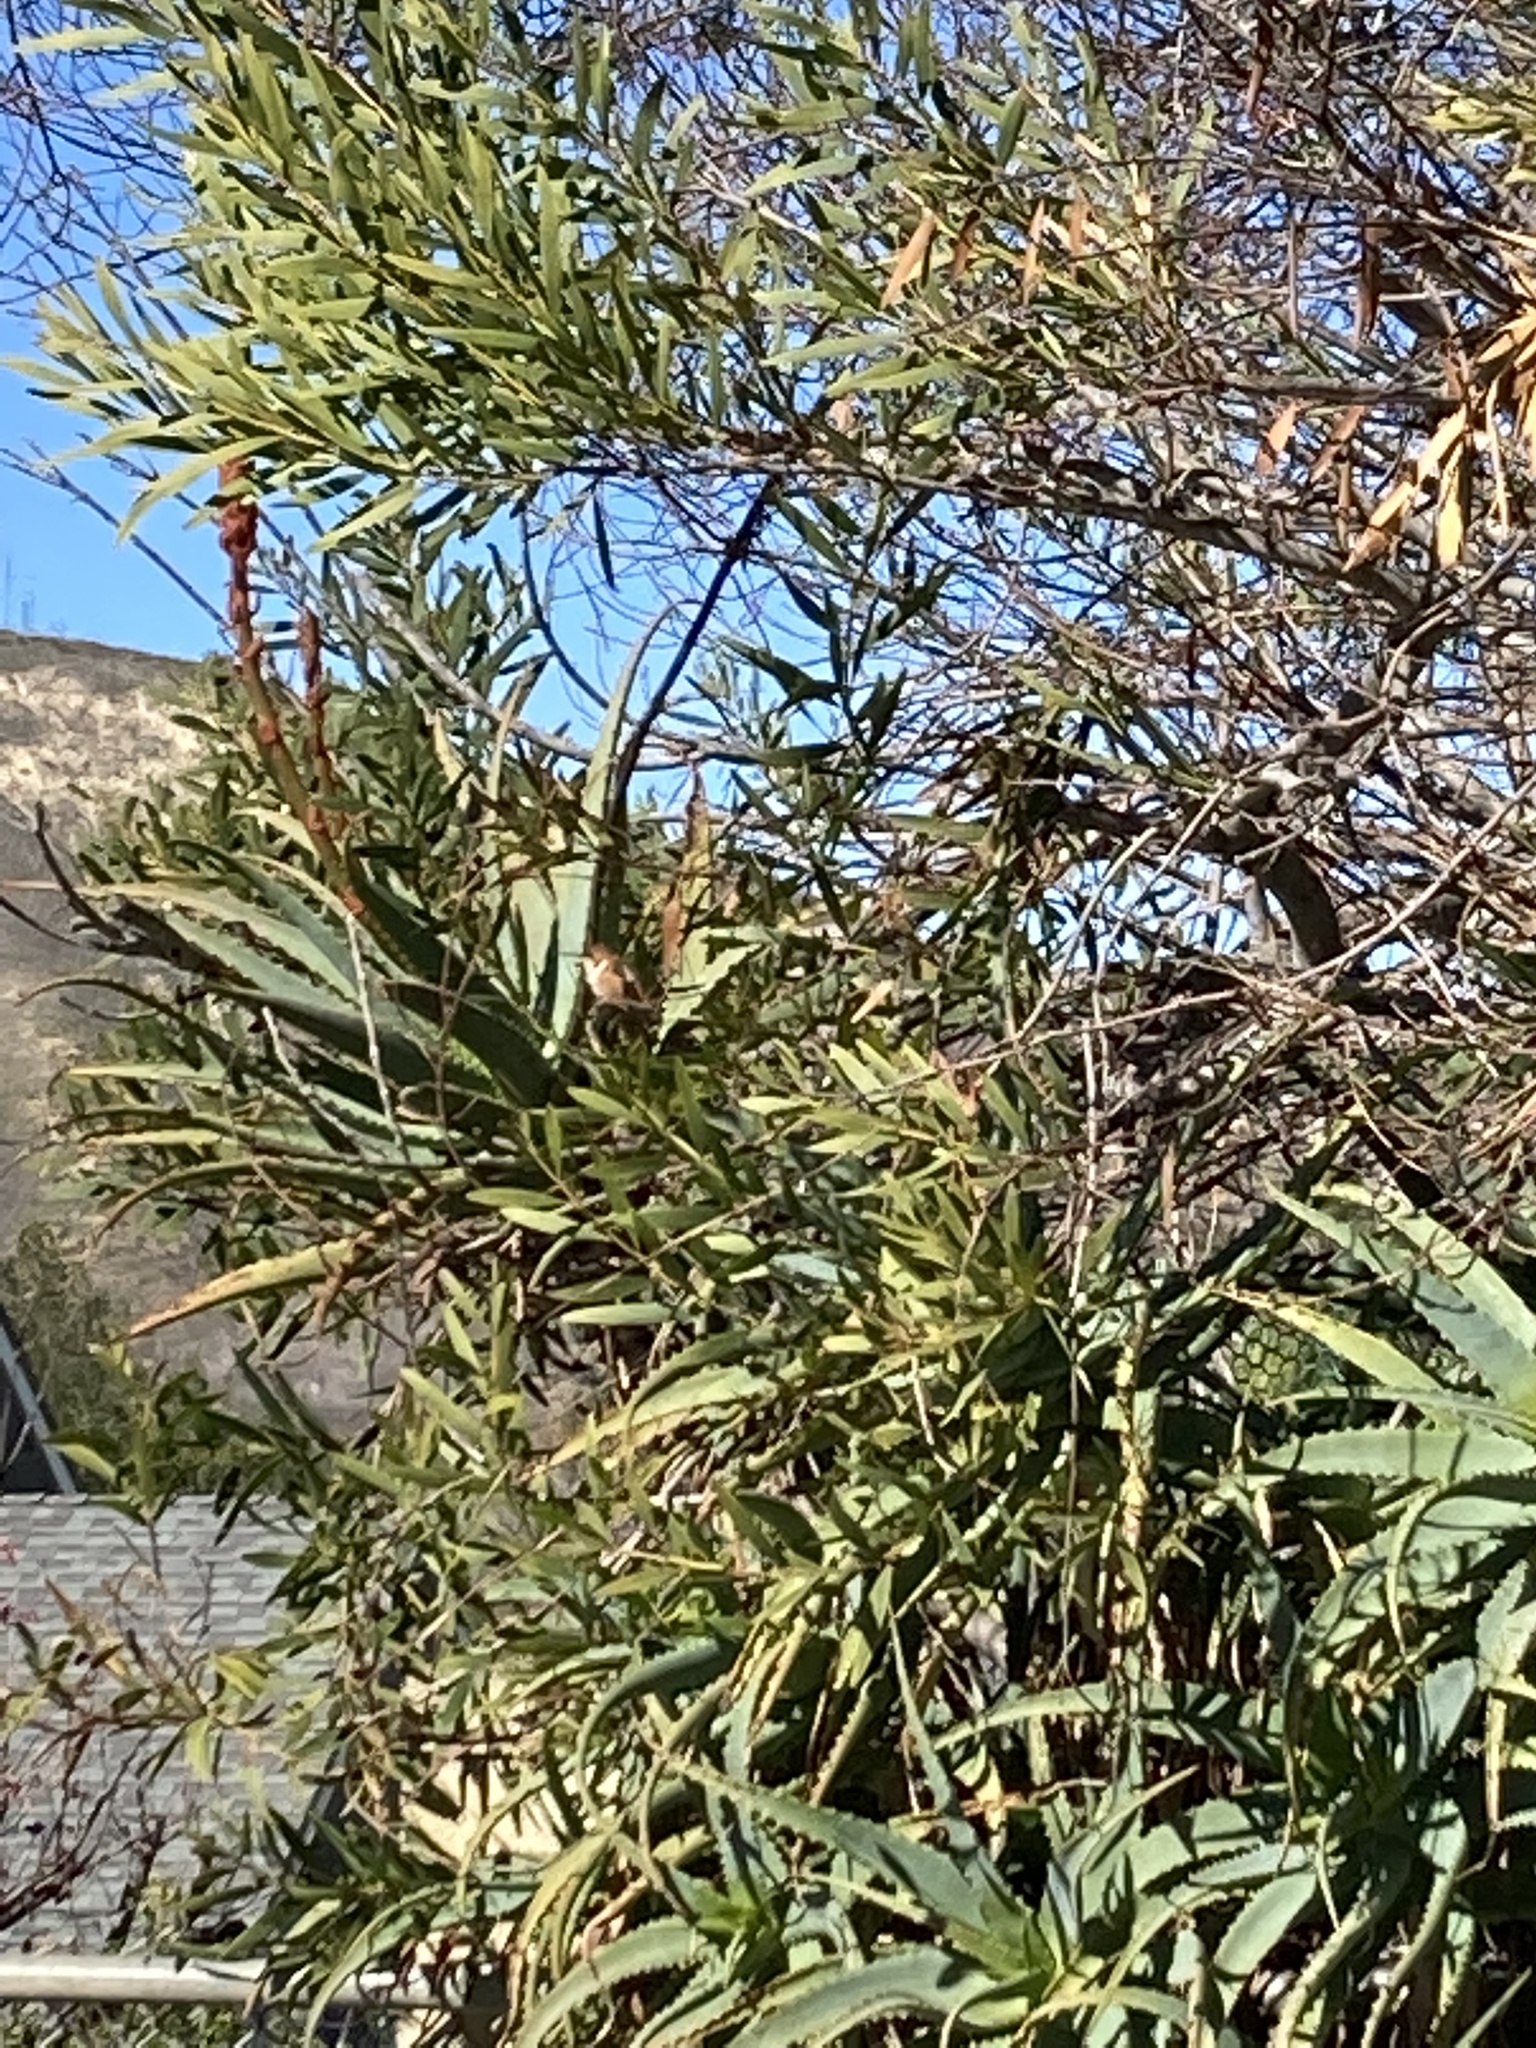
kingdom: Animalia
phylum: Chordata
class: Aves
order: Apodiformes
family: Trochilidae
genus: Selasphorus
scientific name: Selasphorus sasin
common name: Allen's hummingbird
